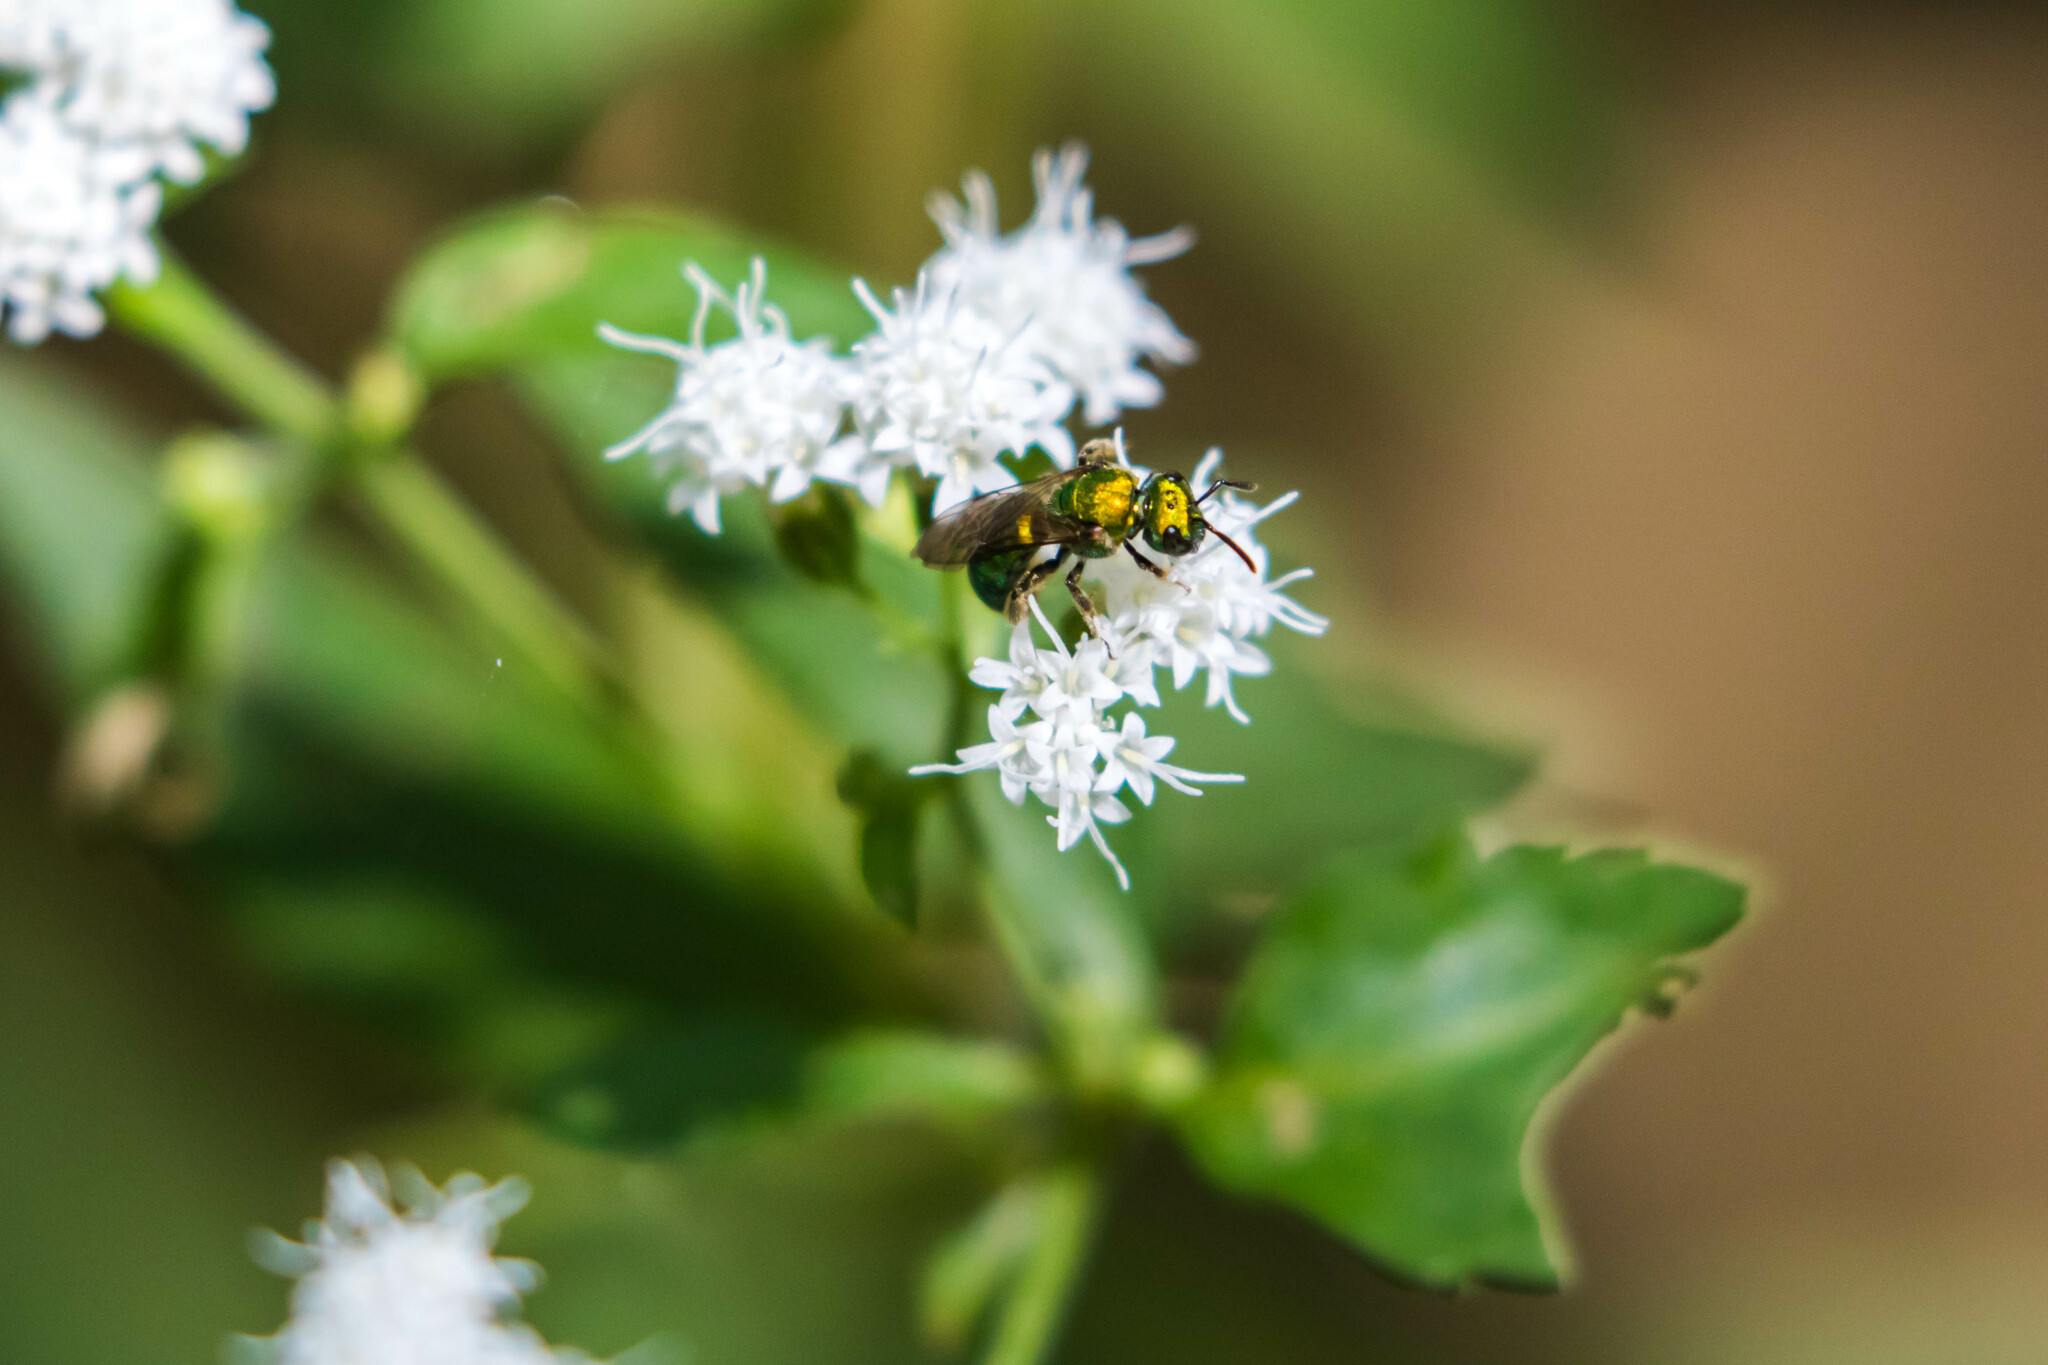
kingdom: Animalia
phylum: Arthropoda
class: Insecta
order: Hymenoptera
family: Halictidae
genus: Augochlora
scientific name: Augochlora pura
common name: Pure green sweat bee
